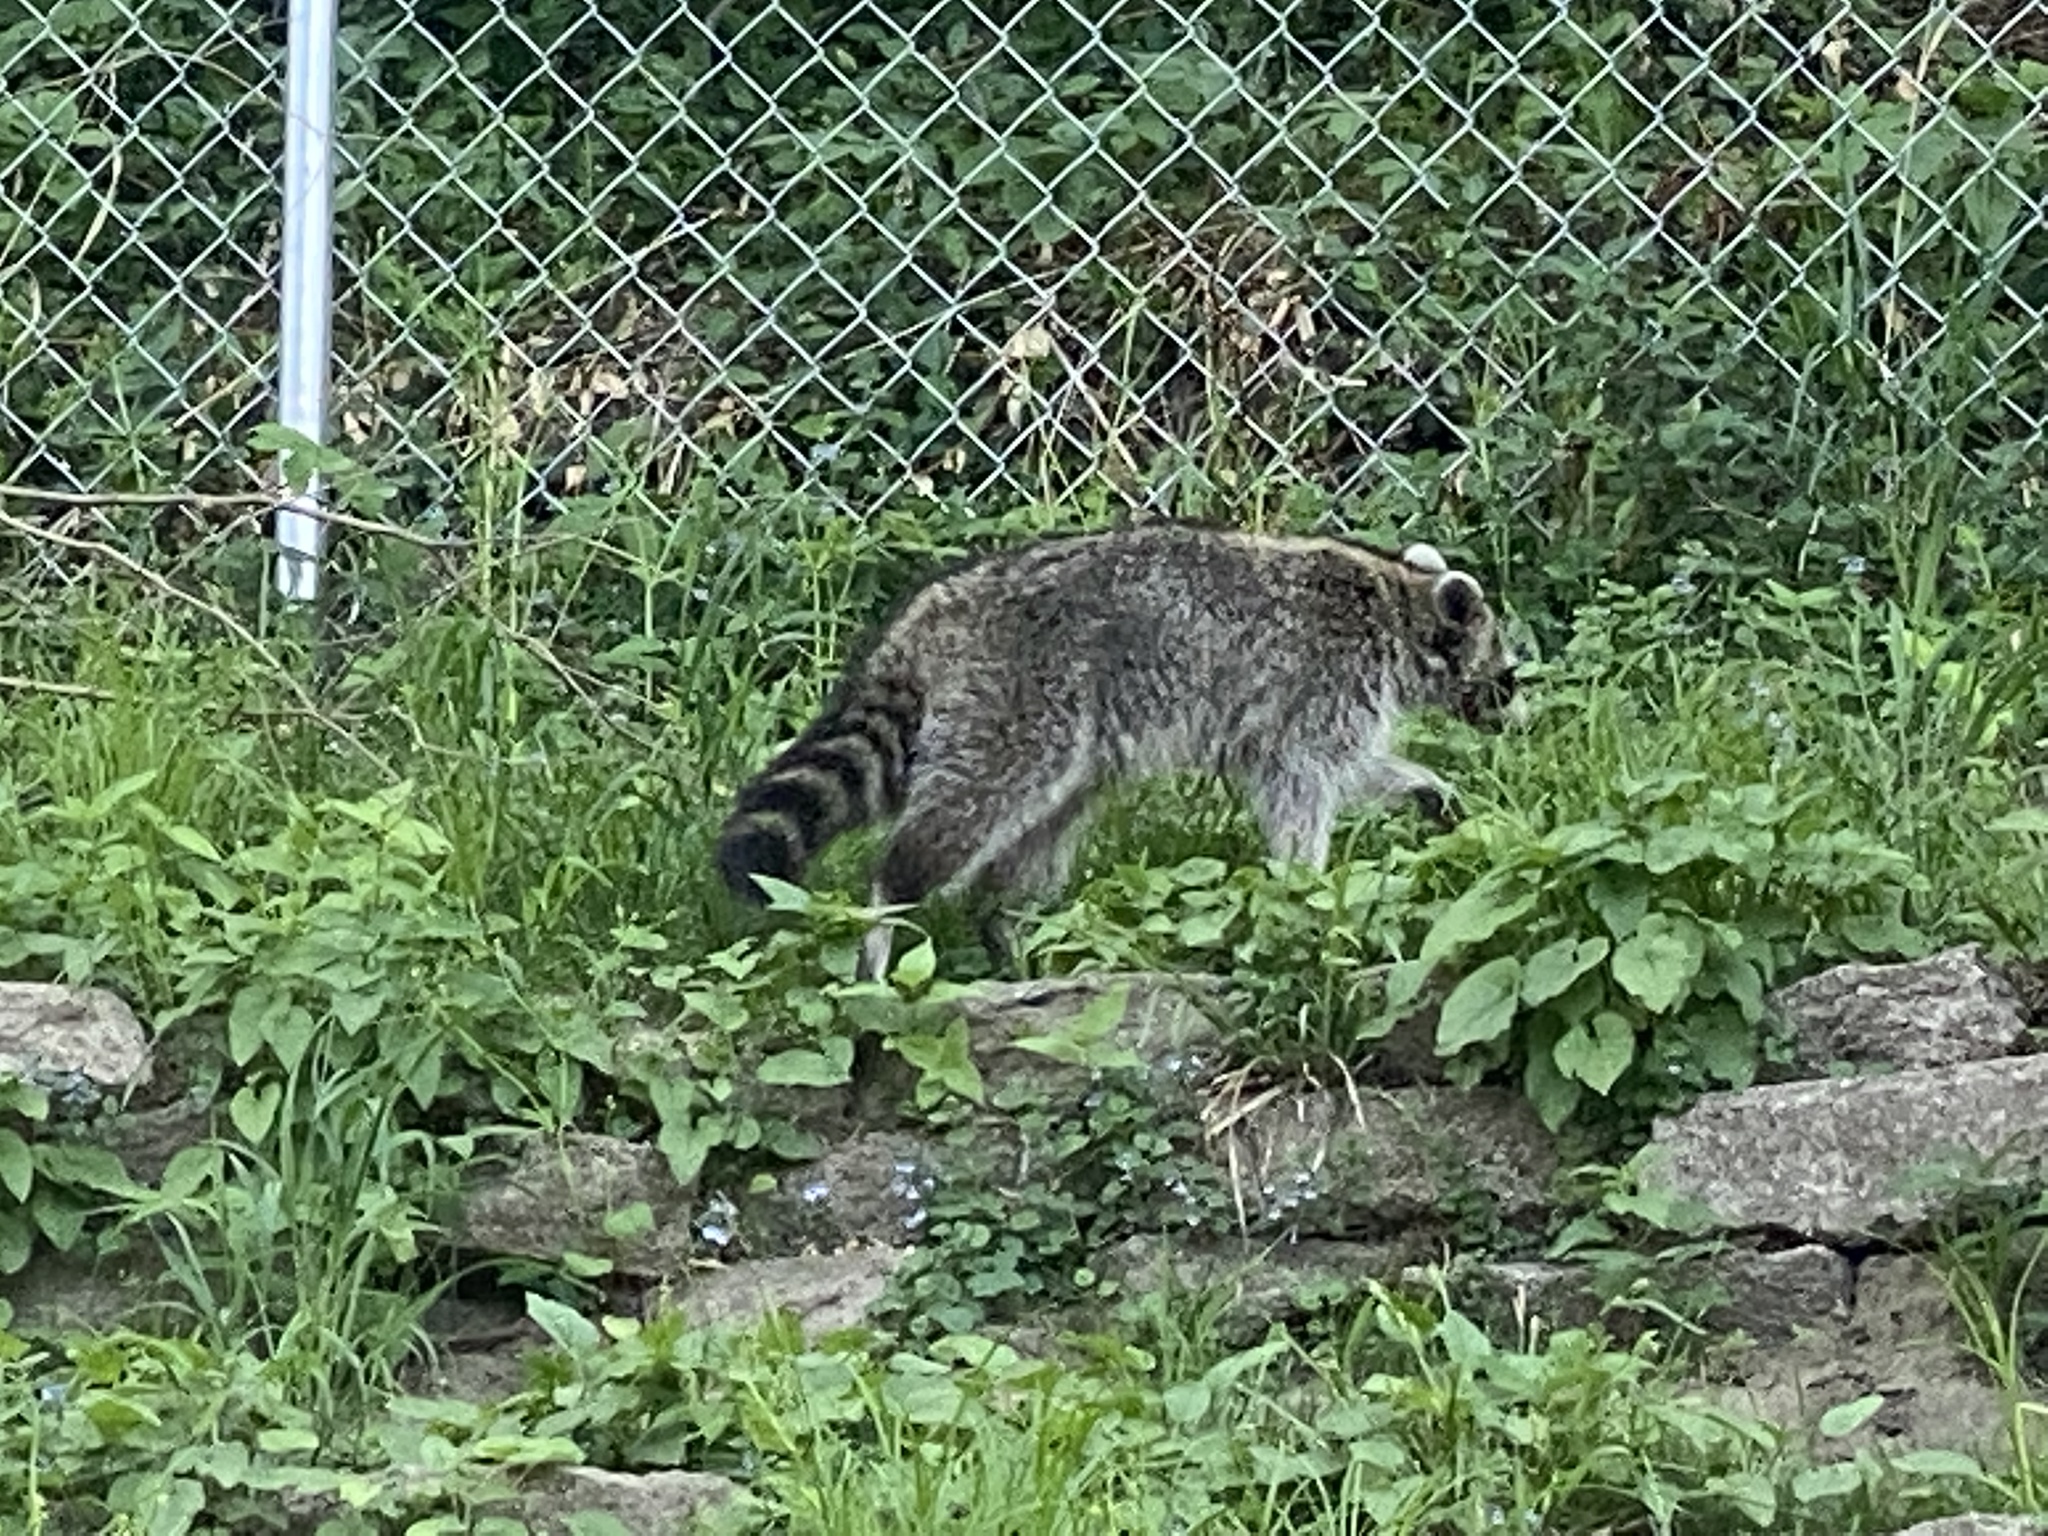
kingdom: Animalia
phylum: Chordata
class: Mammalia
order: Carnivora
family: Procyonidae
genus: Procyon
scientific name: Procyon lotor
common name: Raccoon
